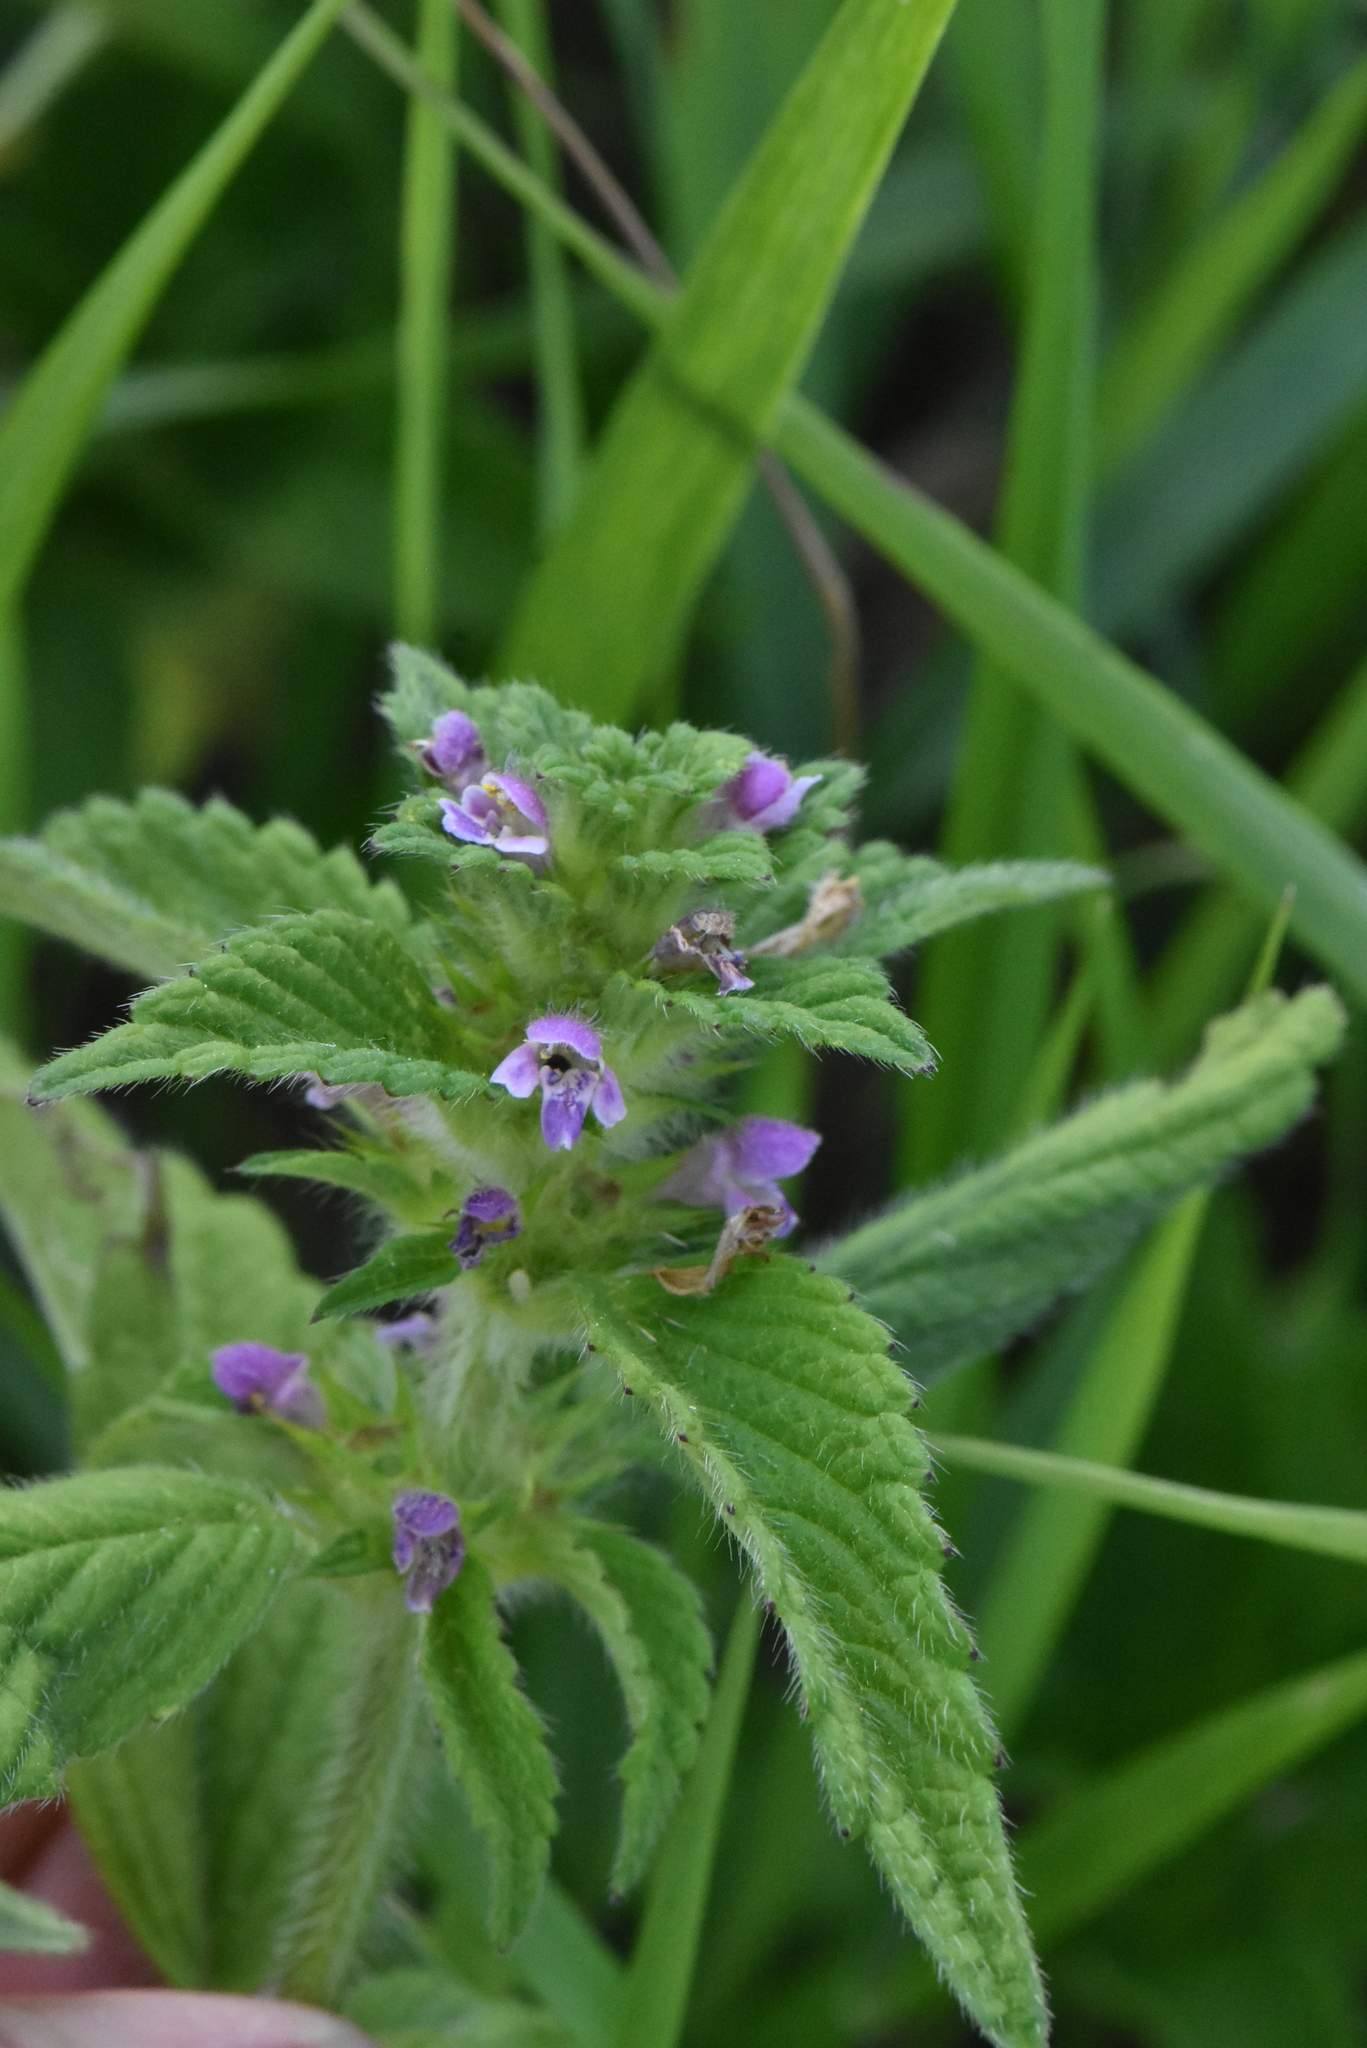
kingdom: Plantae
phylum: Tracheophyta
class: Magnoliopsida
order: Lamiales
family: Lamiaceae
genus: Galeopsis
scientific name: Galeopsis bifida
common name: Bifid hemp-nettle
